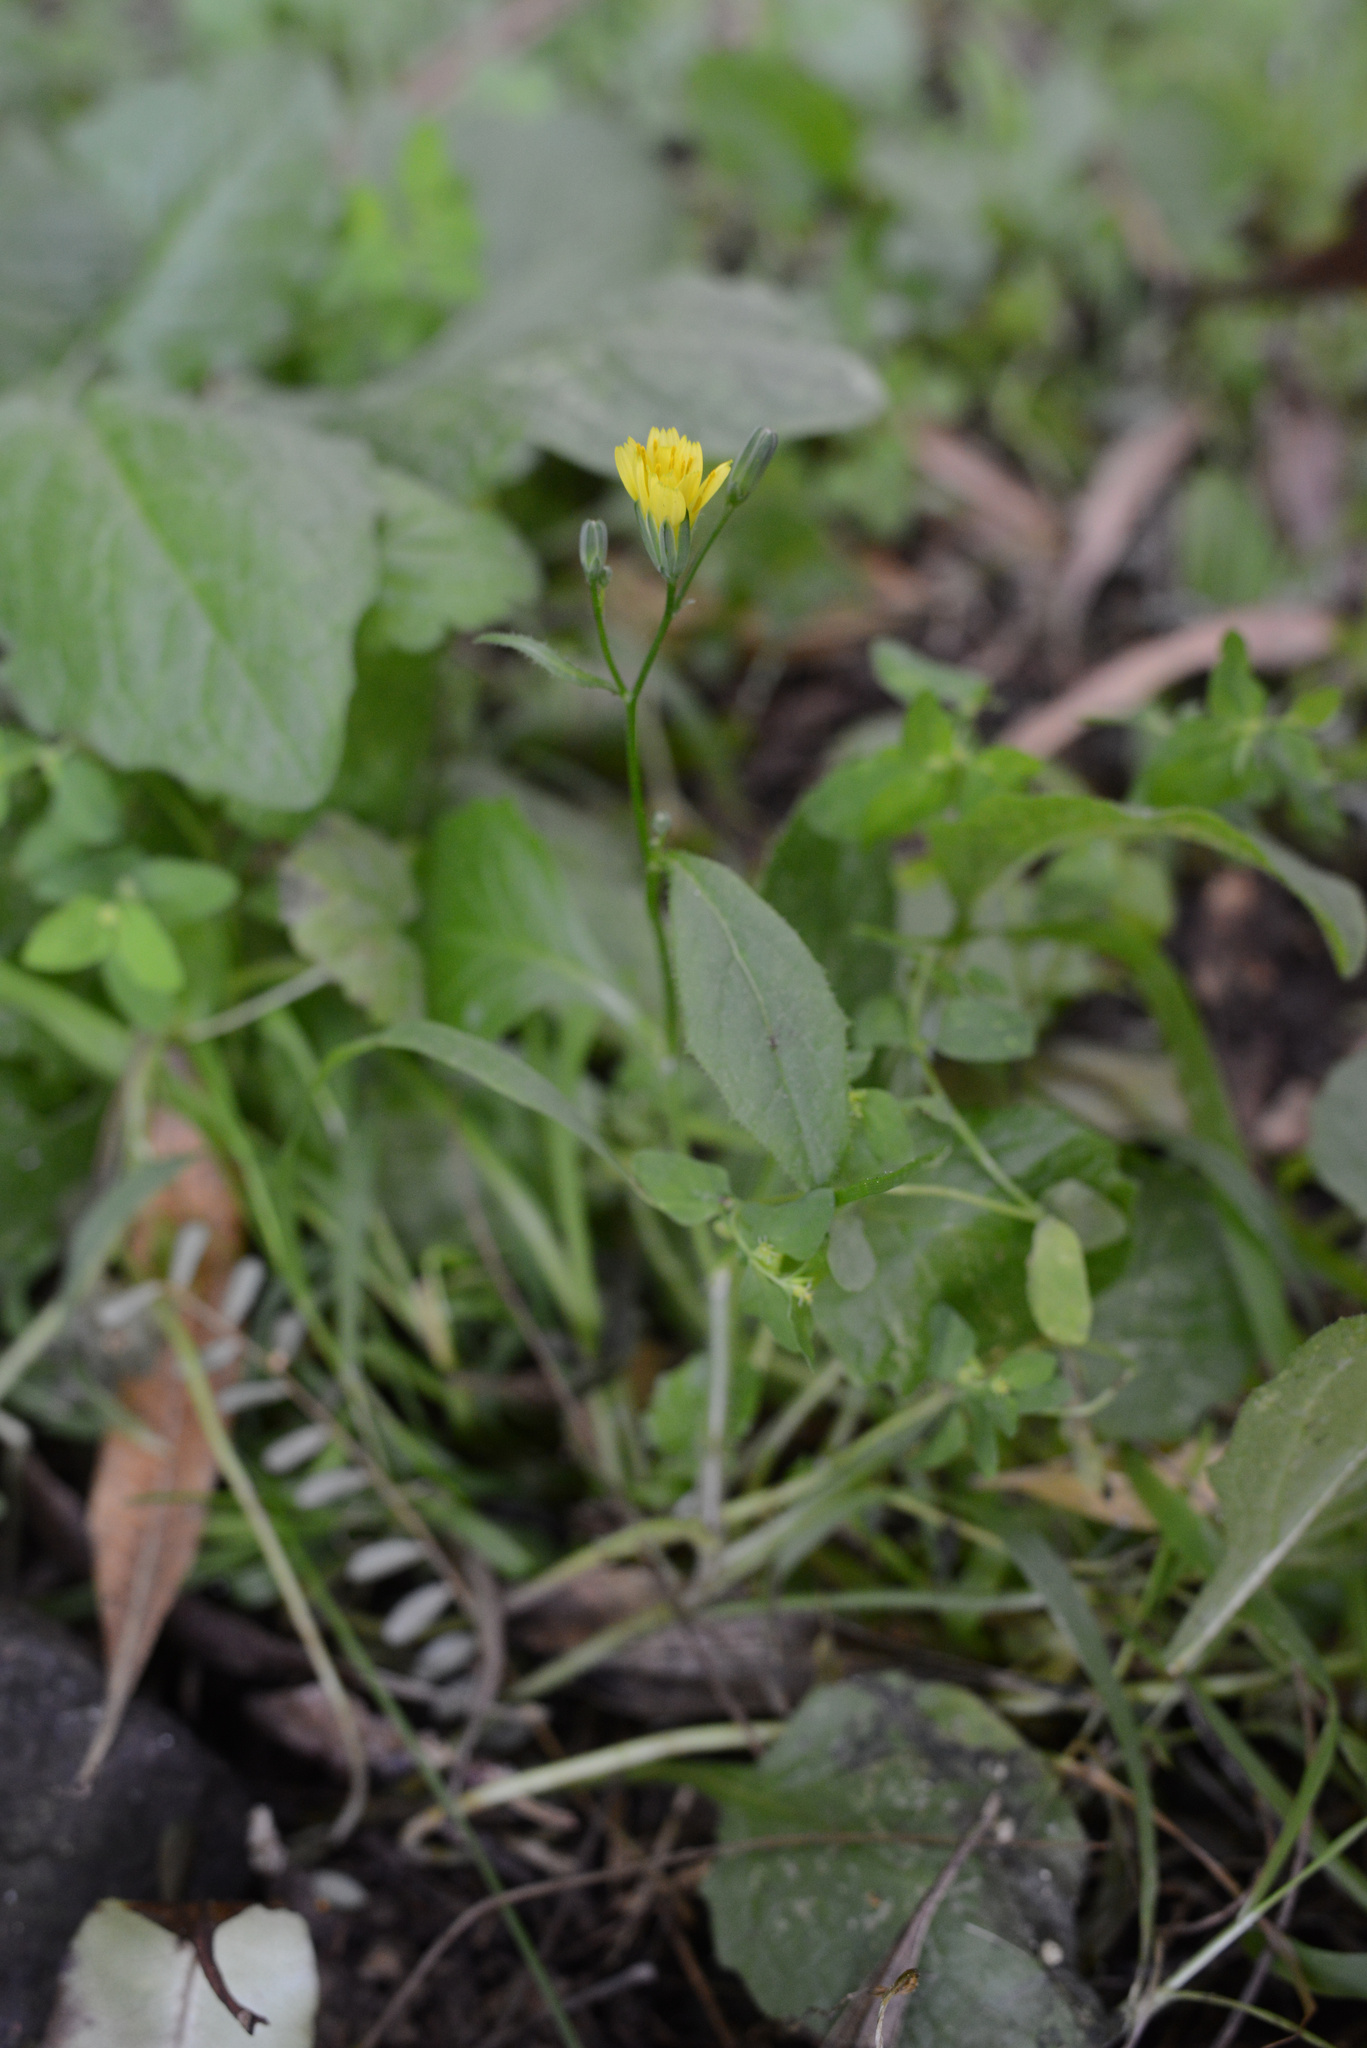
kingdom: Plantae
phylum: Tracheophyta
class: Magnoliopsida
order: Asterales
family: Asteraceae
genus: Lapsana
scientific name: Lapsana communis
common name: Nipplewort
